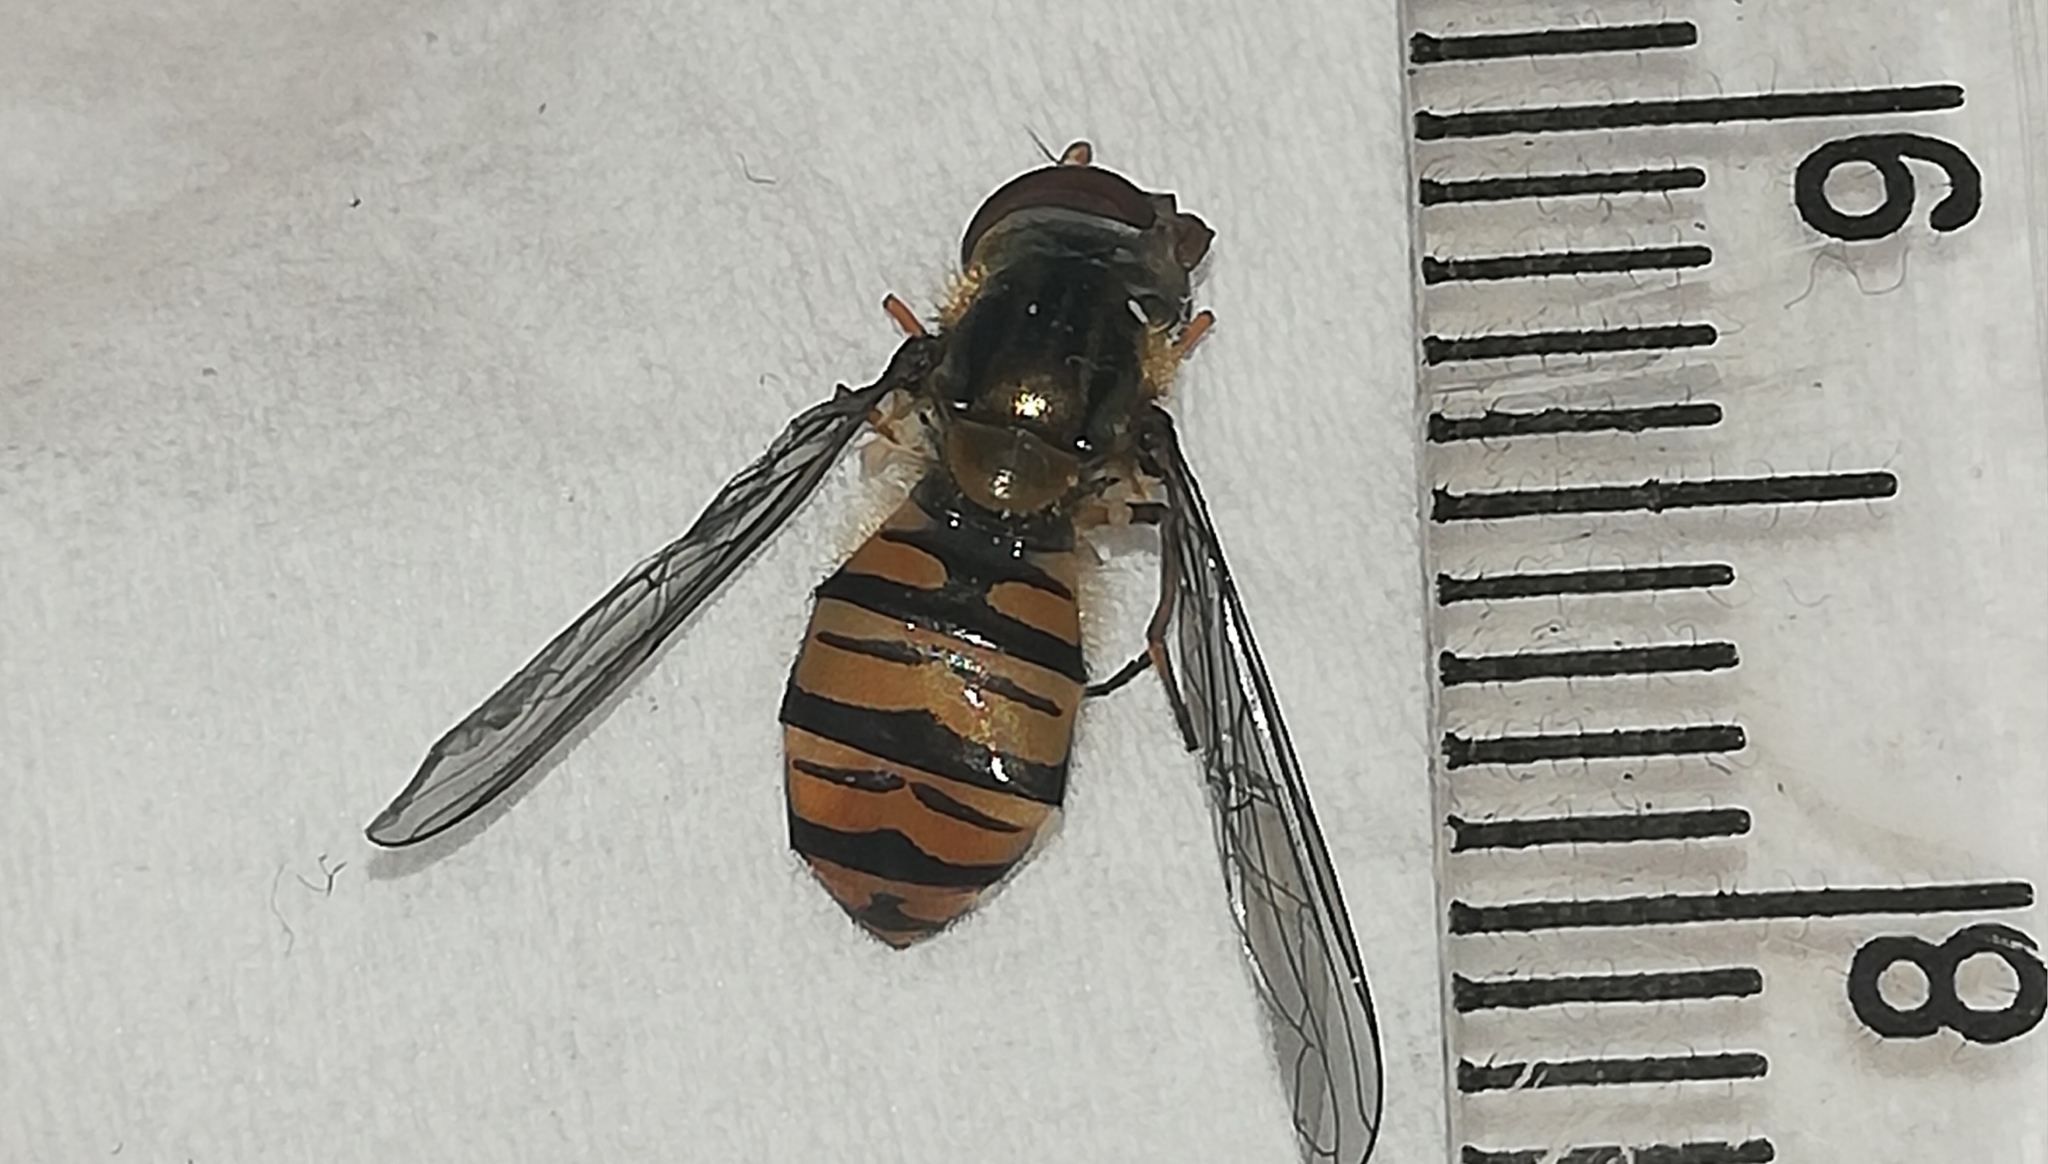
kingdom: Animalia
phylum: Arthropoda
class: Insecta
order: Diptera
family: Syrphidae
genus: Episyrphus
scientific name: Episyrphus balteatus
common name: Marmalade hoverfly
